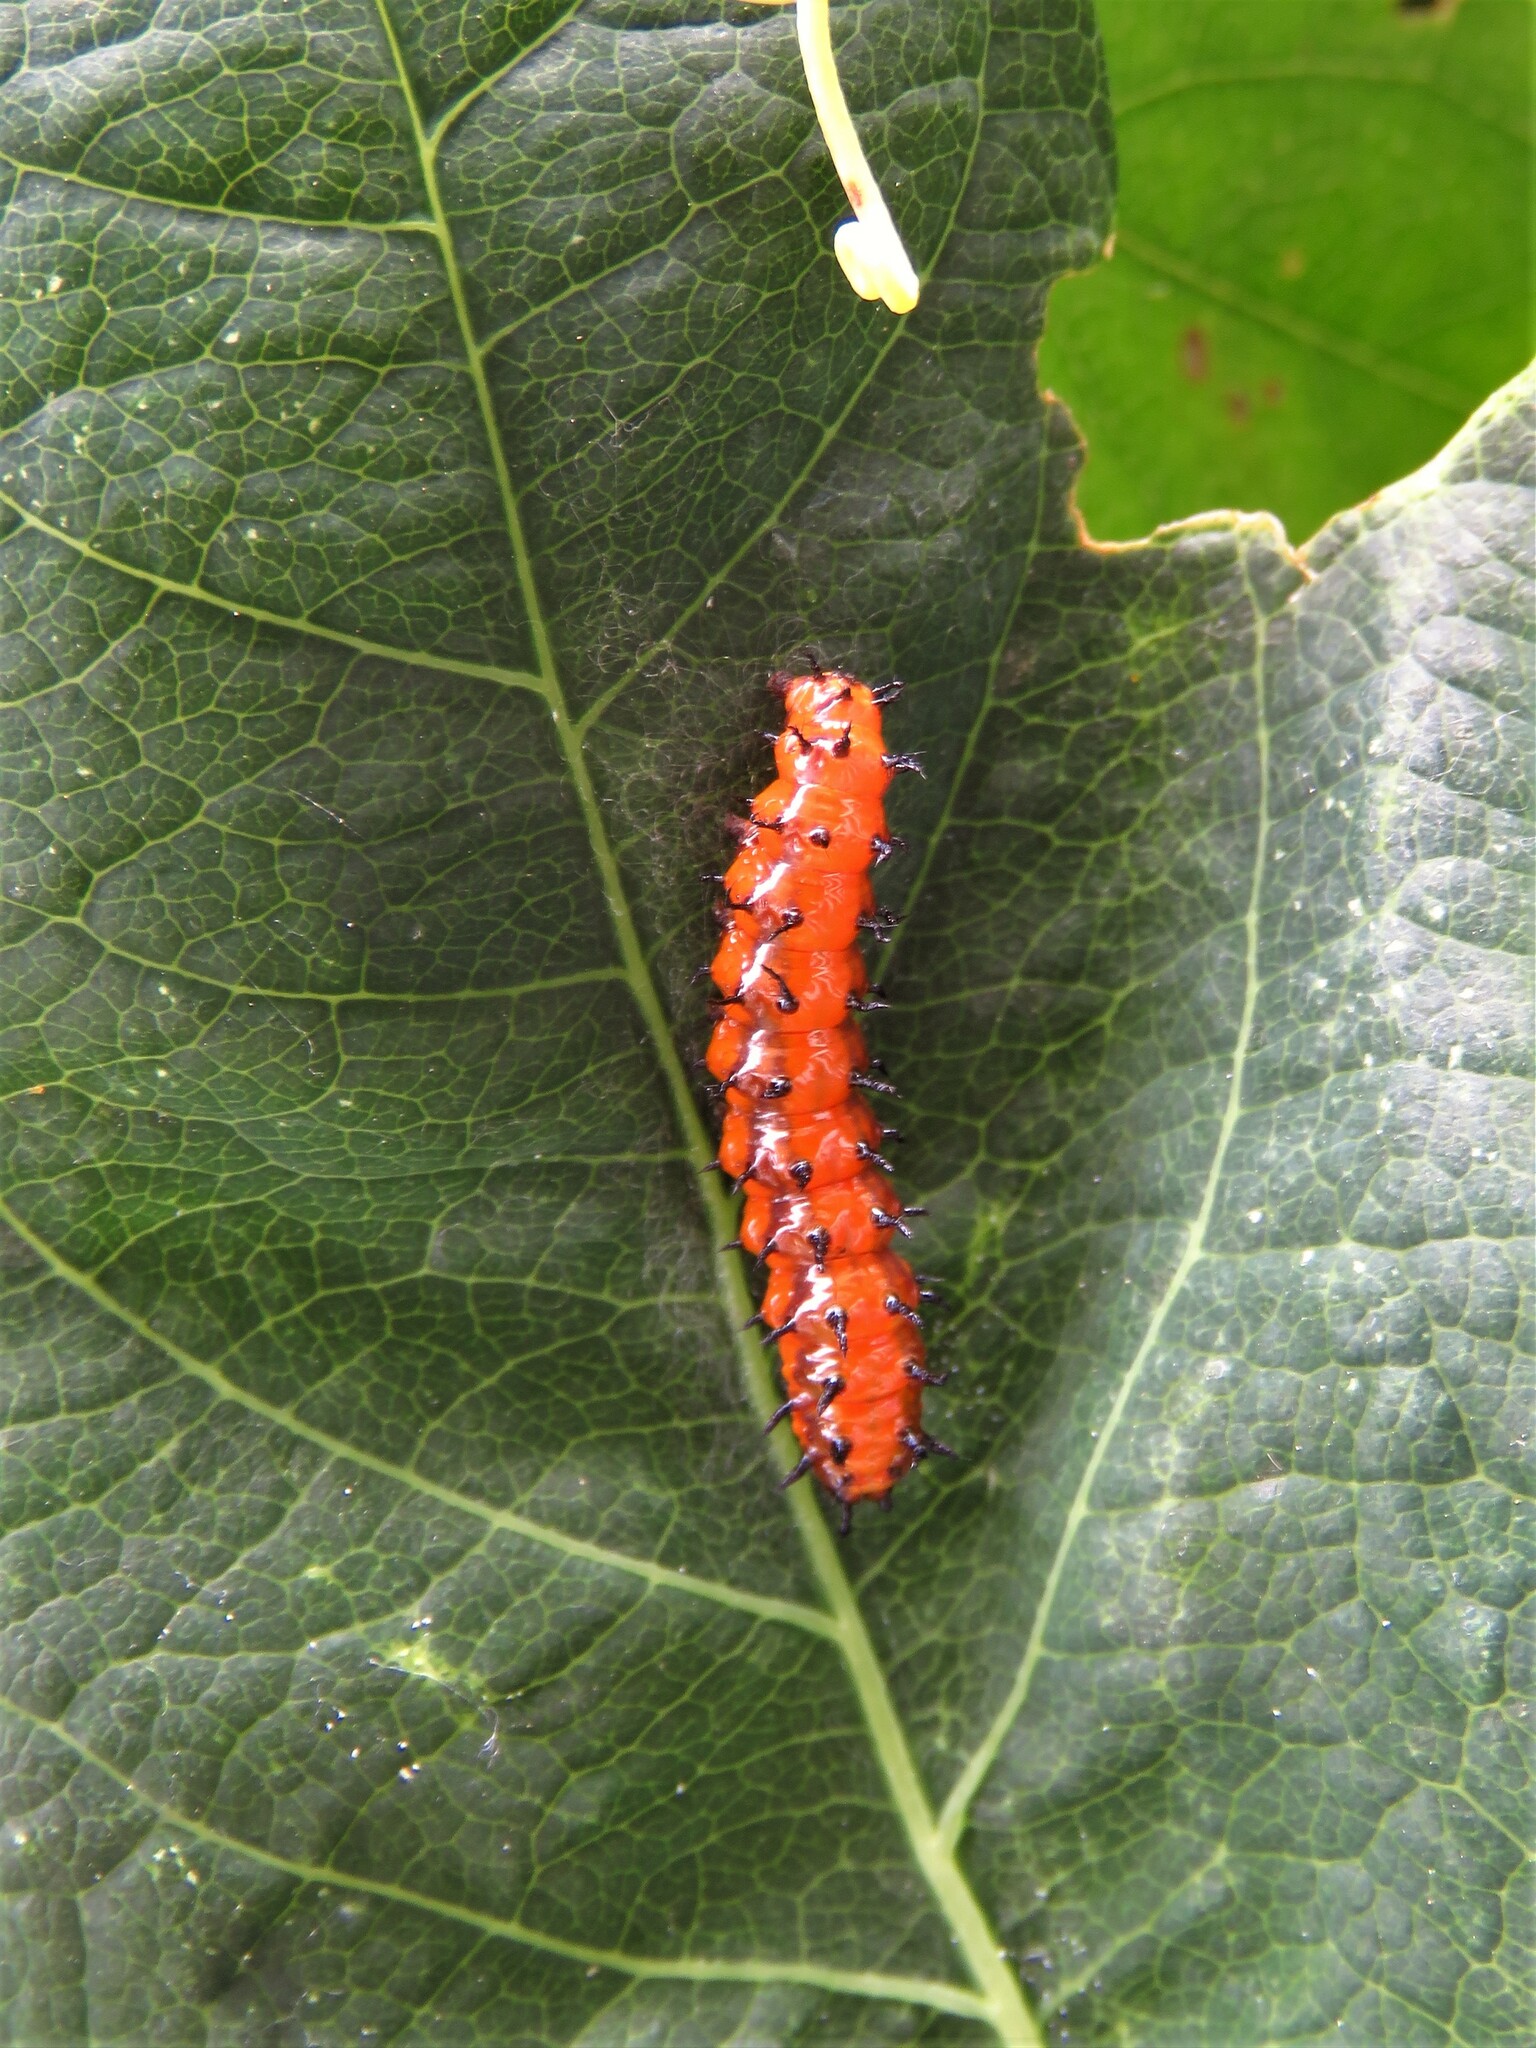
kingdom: Animalia
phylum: Arthropoda
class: Insecta
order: Lepidoptera
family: Nymphalidae
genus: Dione
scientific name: Dione vanillae
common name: Gulf fritillary
